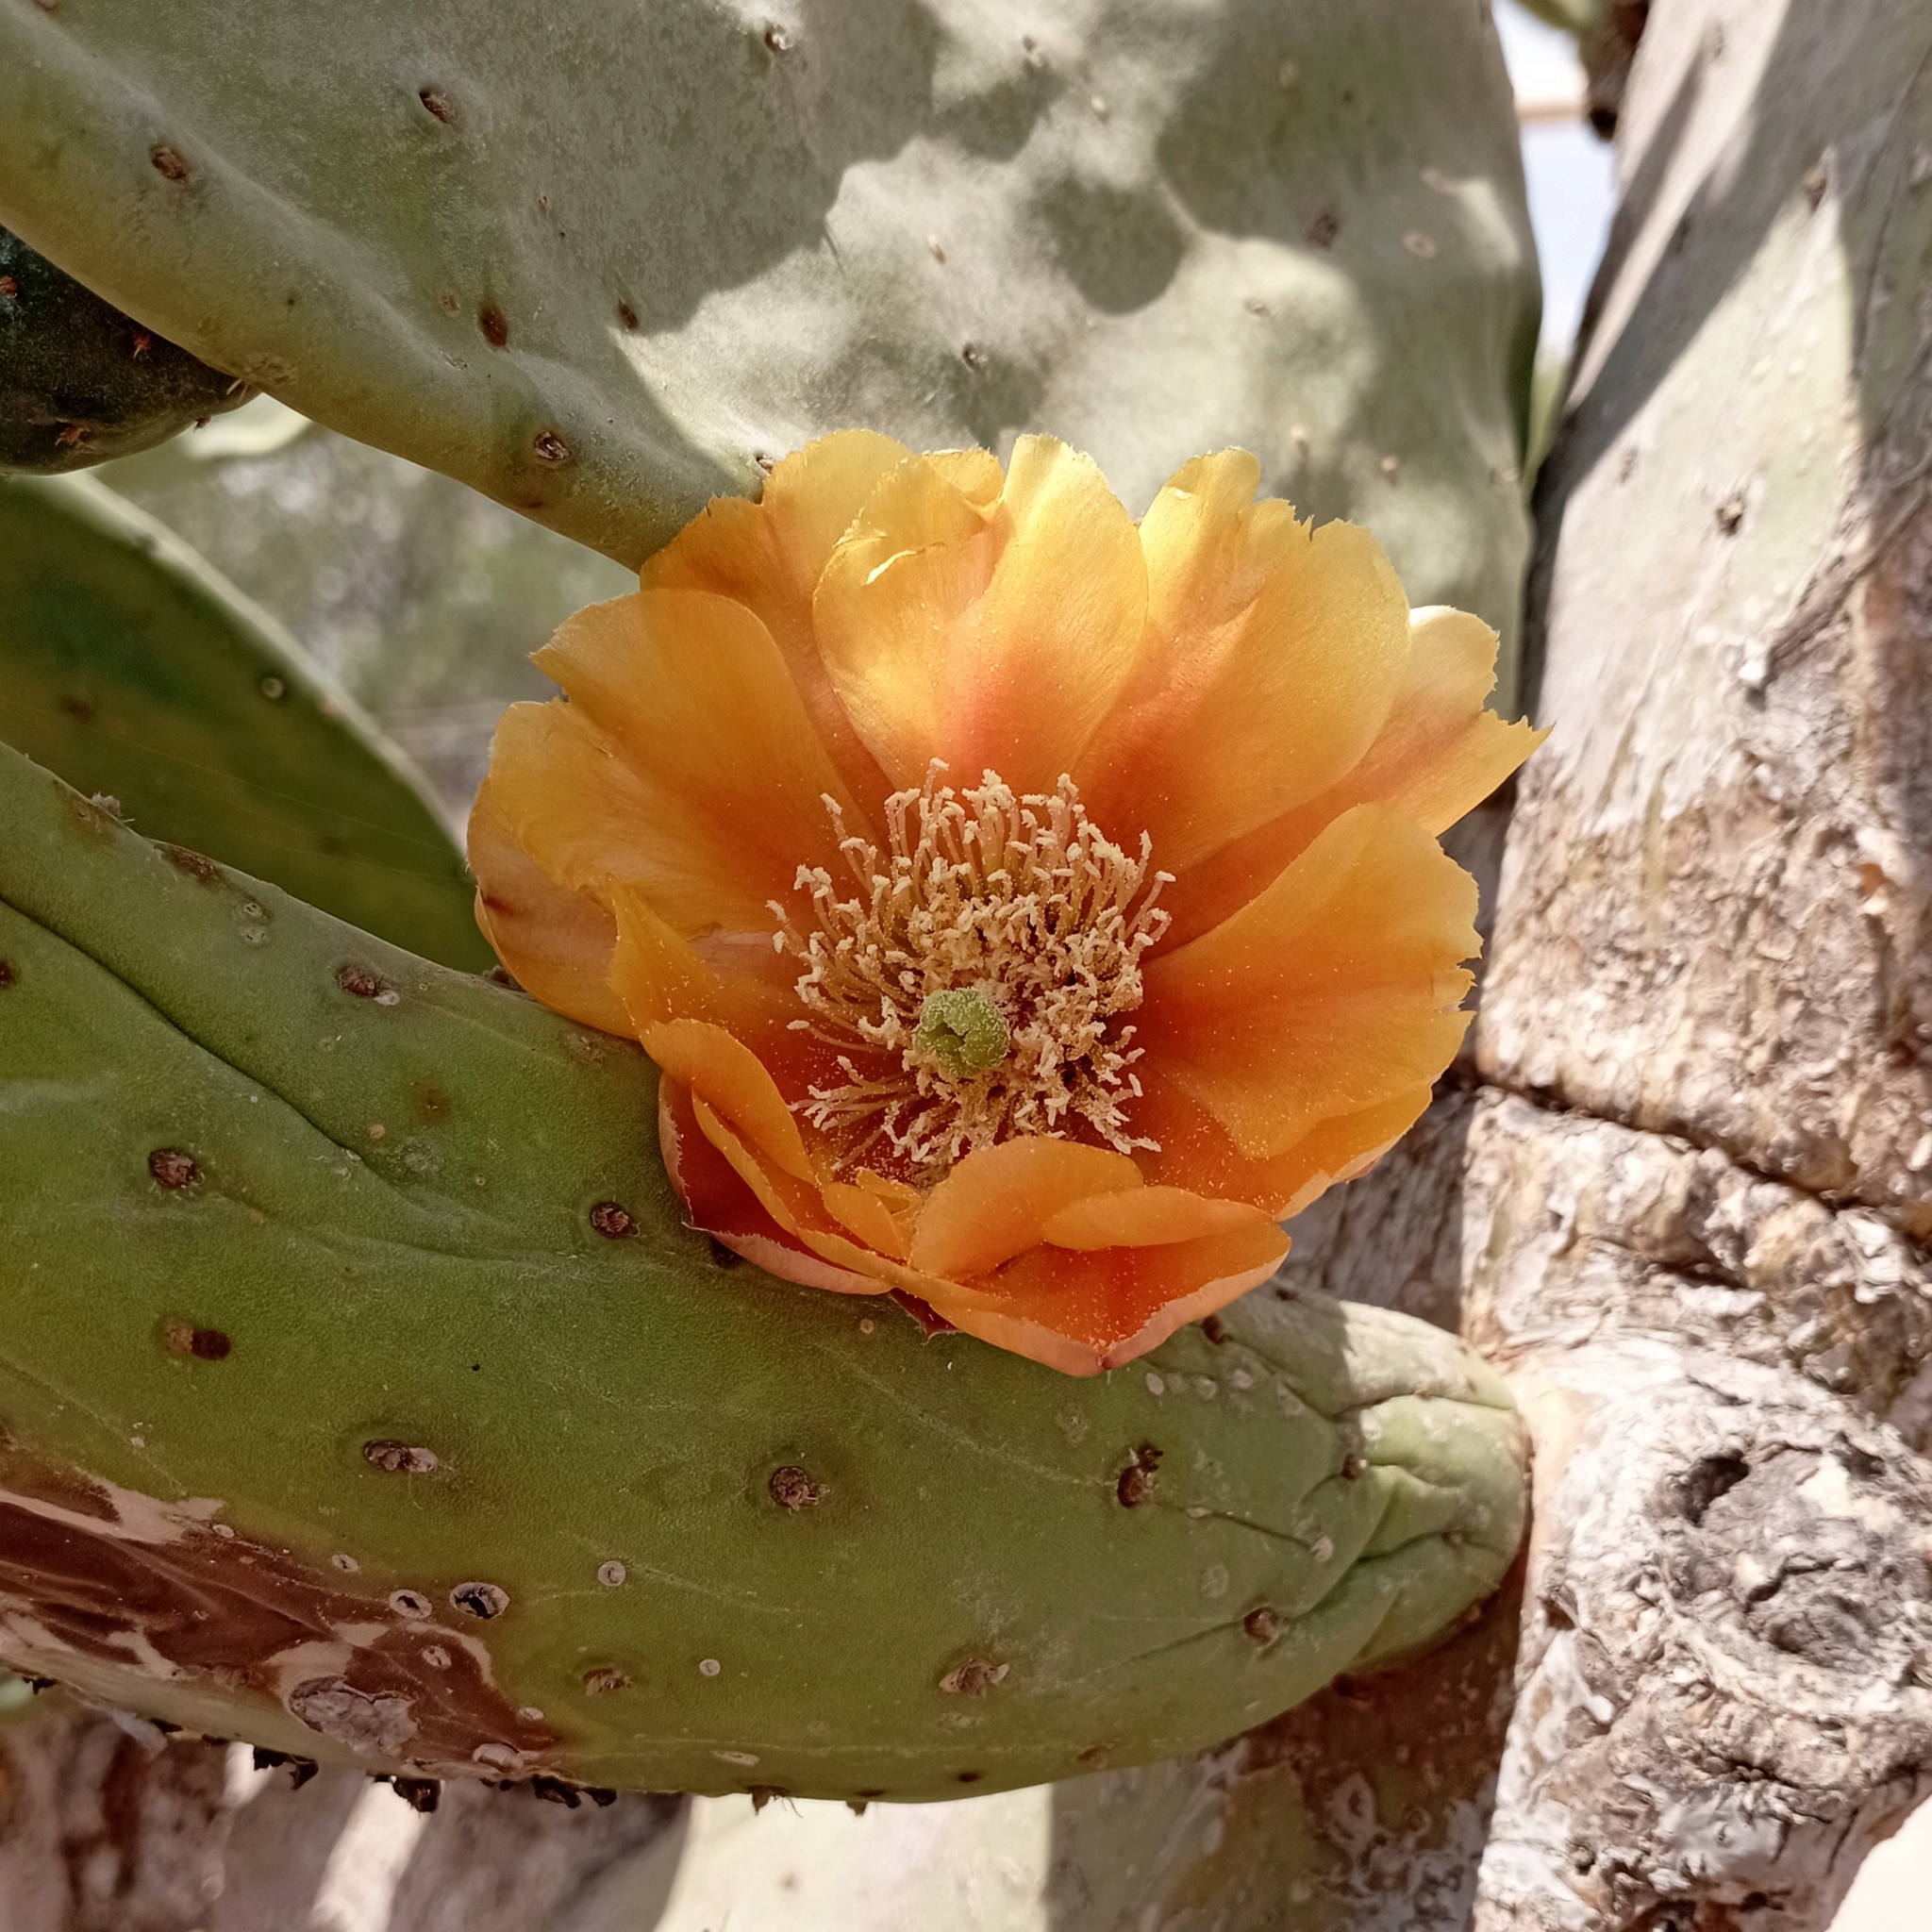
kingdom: Plantae
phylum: Tracheophyta
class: Magnoliopsida
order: Caryophyllales
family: Cactaceae
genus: Opuntia
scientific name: Opuntia ficus-indica
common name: Barbary fig
